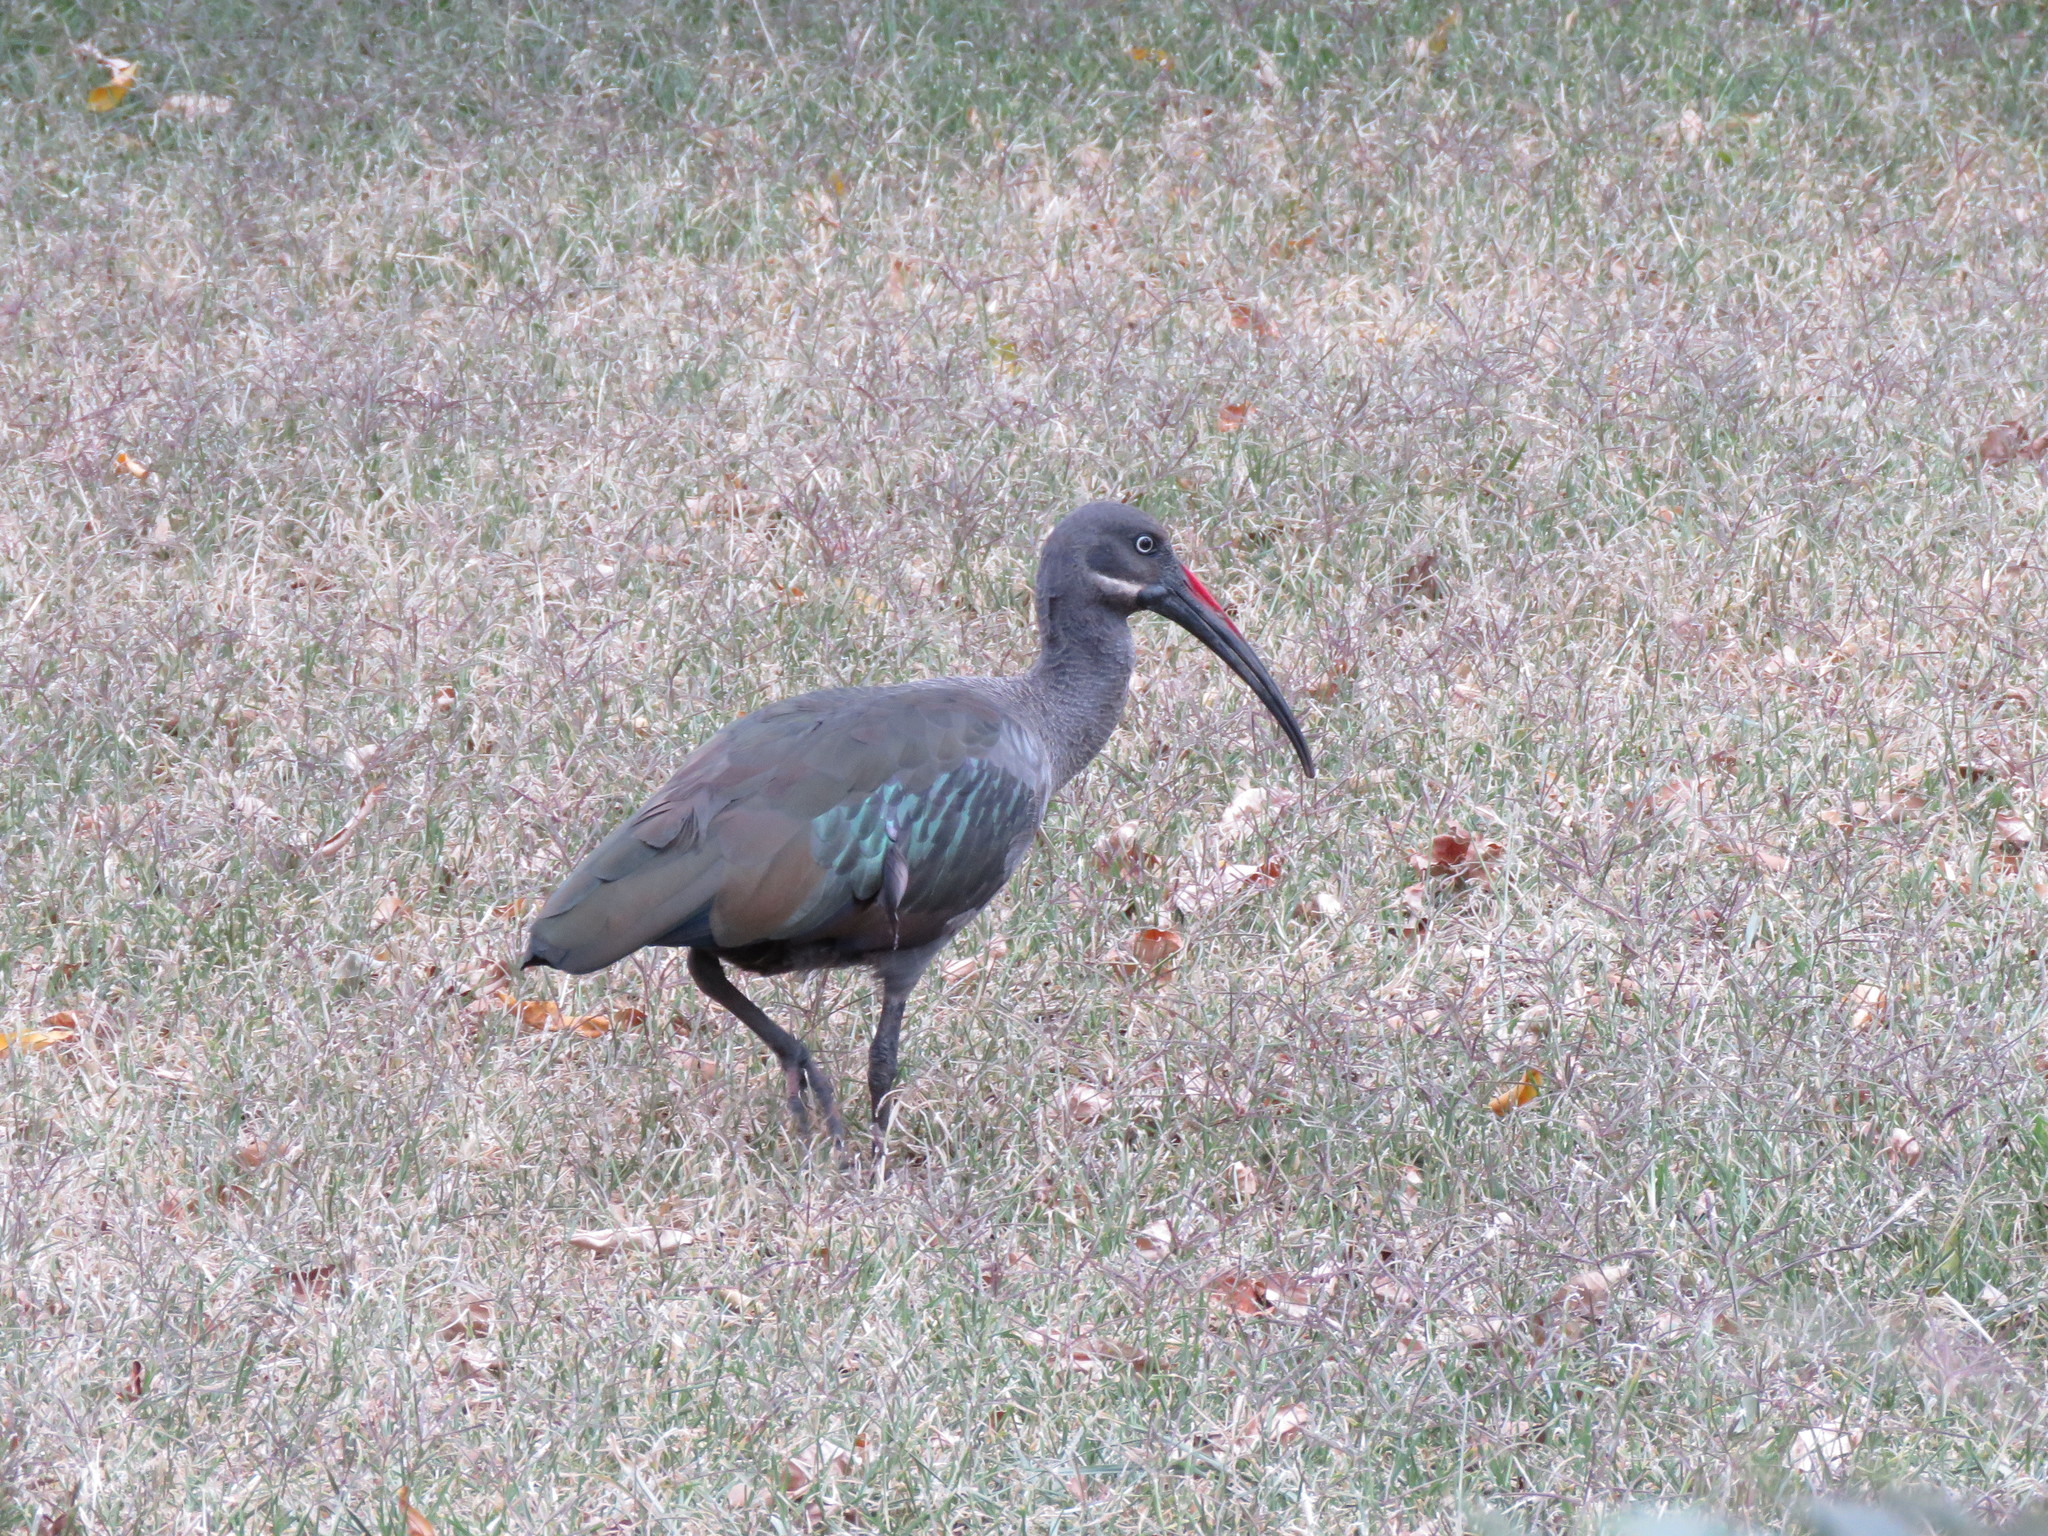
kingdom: Animalia
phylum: Chordata
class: Aves
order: Pelecaniformes
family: Threskiornithidae
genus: Bostrychia
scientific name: Bostrychia hagedash
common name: Hadada ibis
